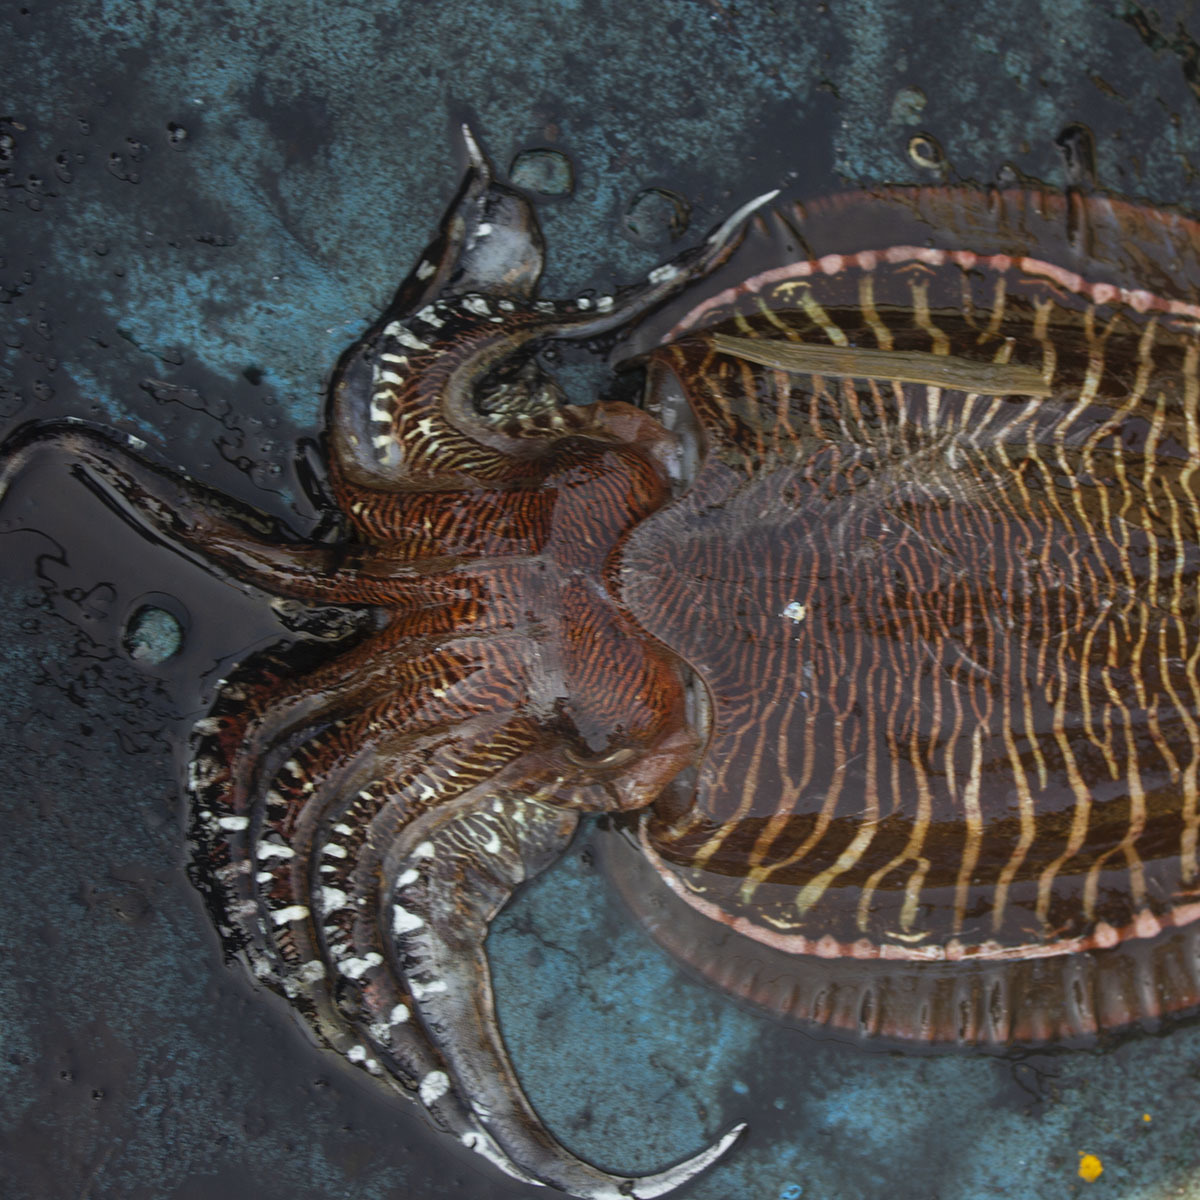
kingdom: Animalia
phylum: Mollusca
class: Cephalopoda
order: Sepiida
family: Sepiidae
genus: Acanthosepion
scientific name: Acanthosepion pharaonis
